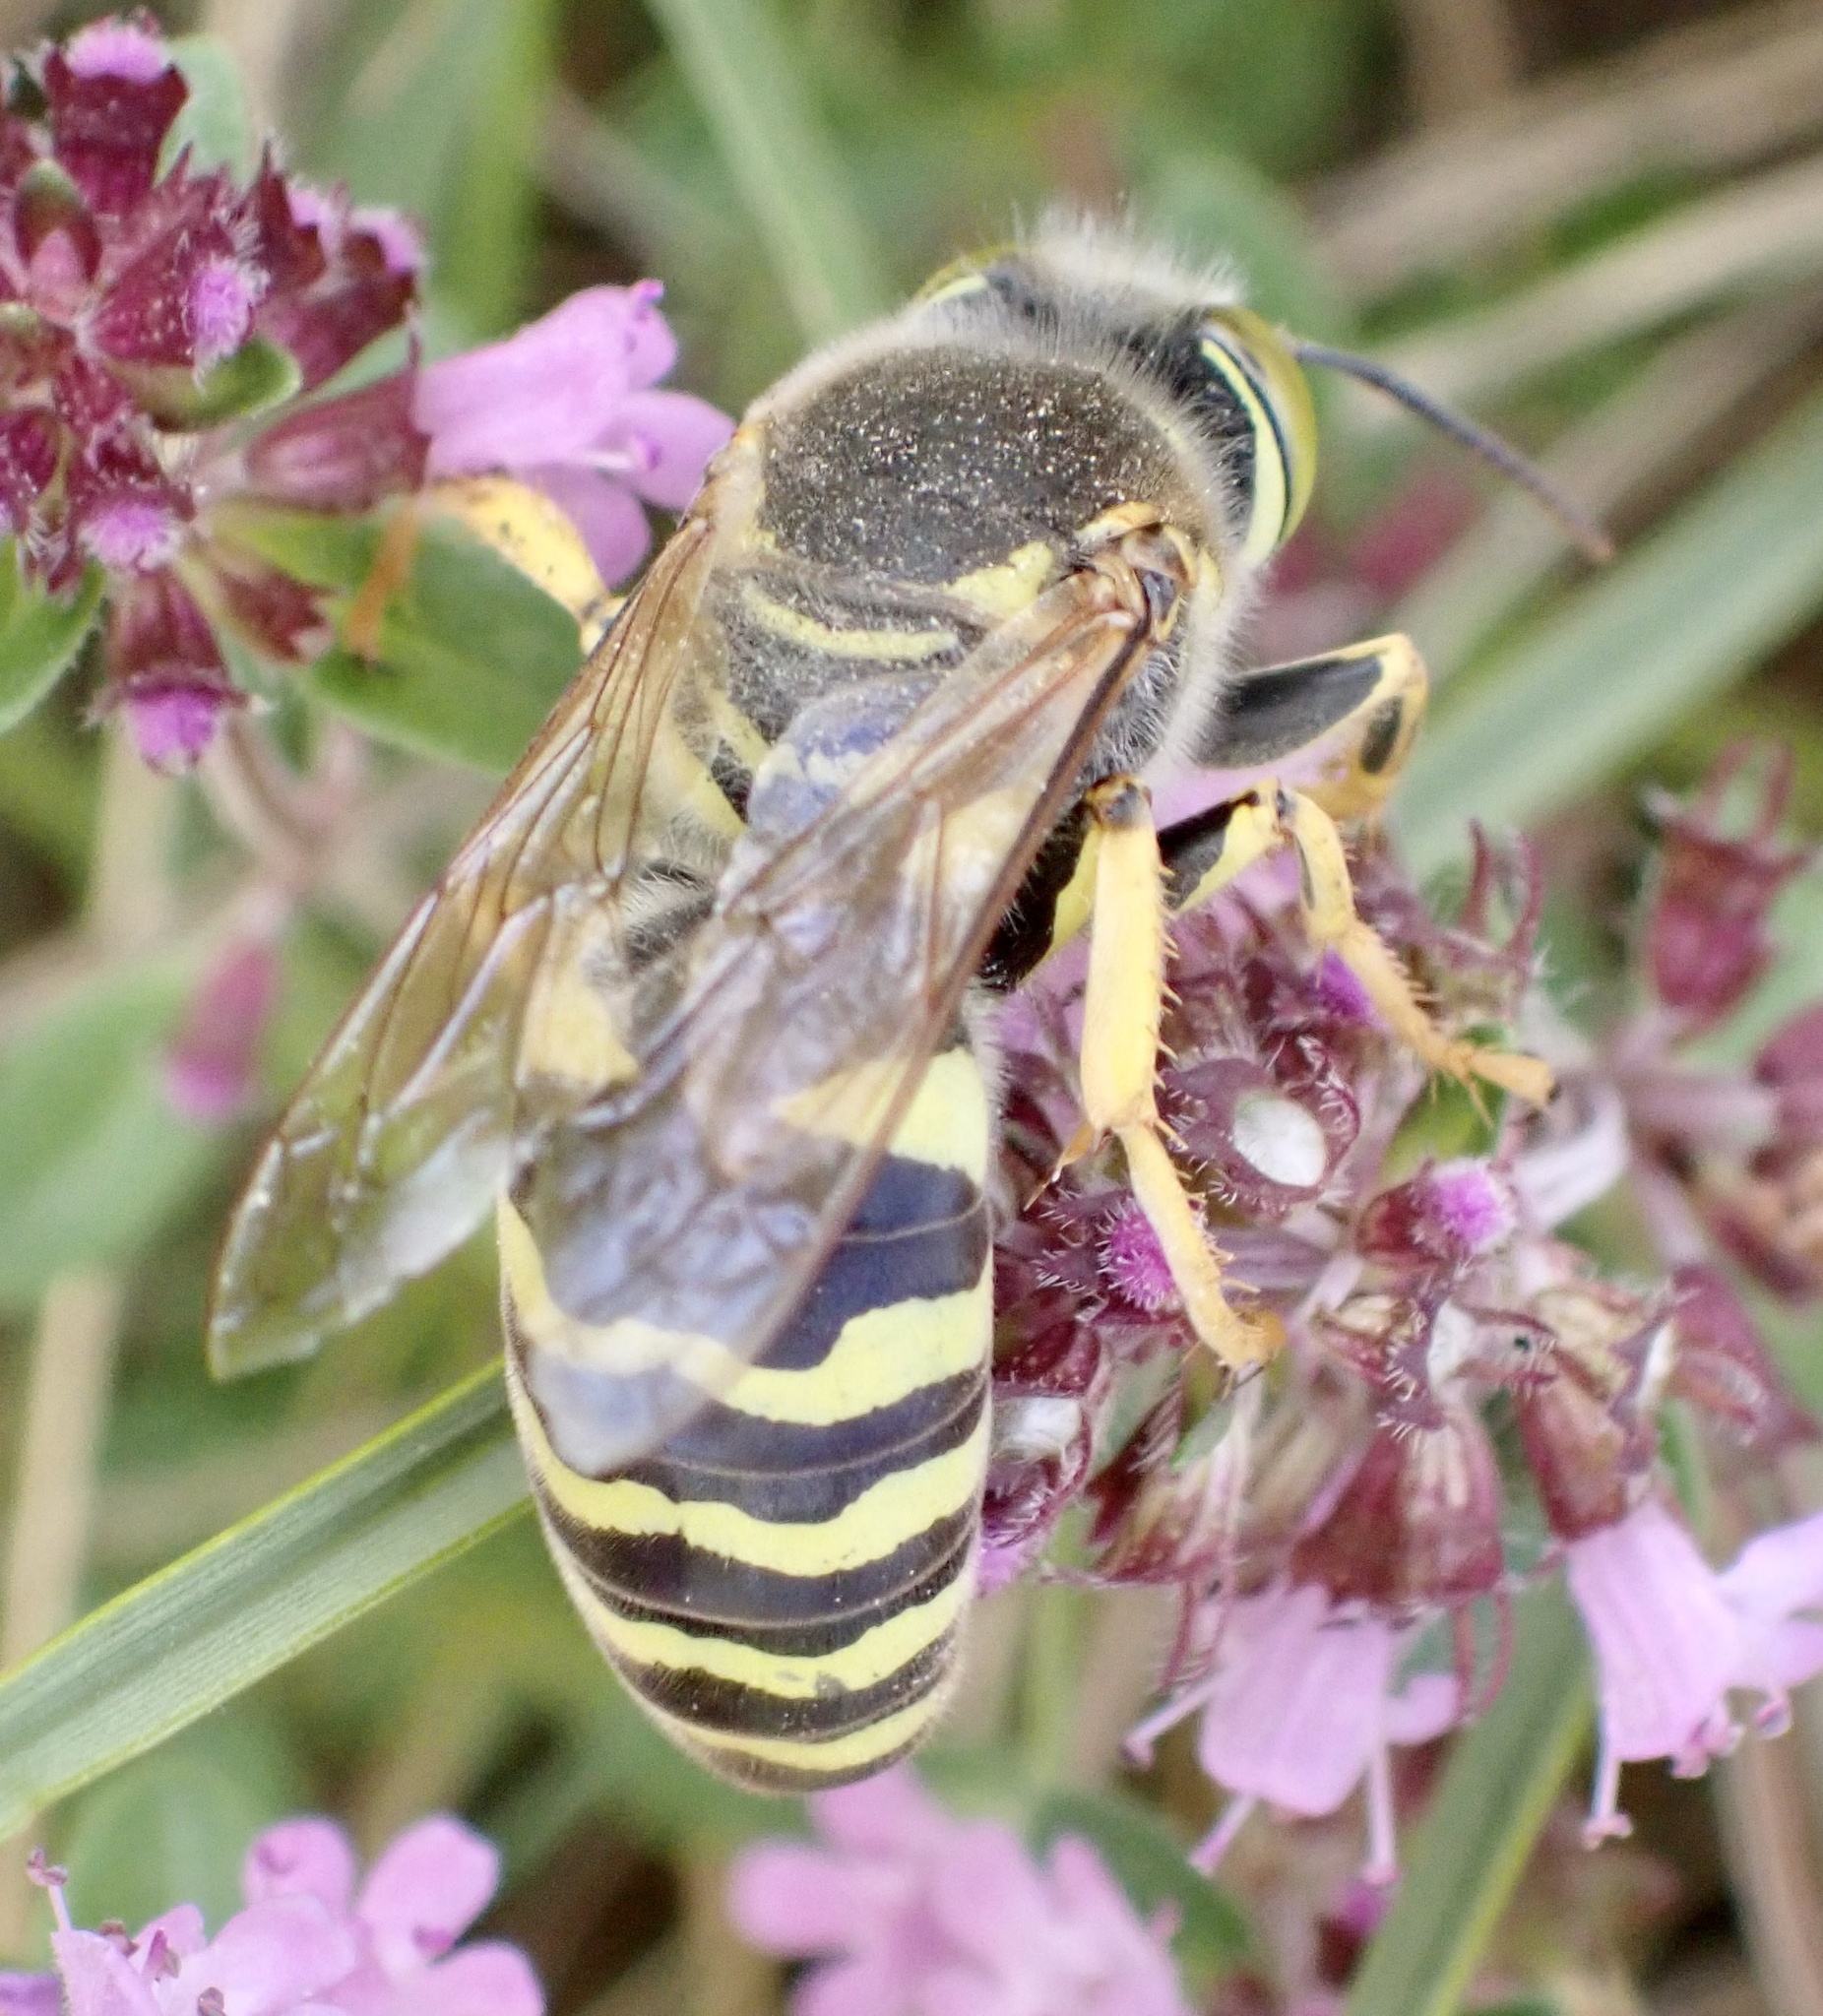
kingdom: Animalia
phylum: Arthropoda
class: Insecta
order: Hymenoptera
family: Crabronidae
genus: Bembix
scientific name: Bembix rostrata
